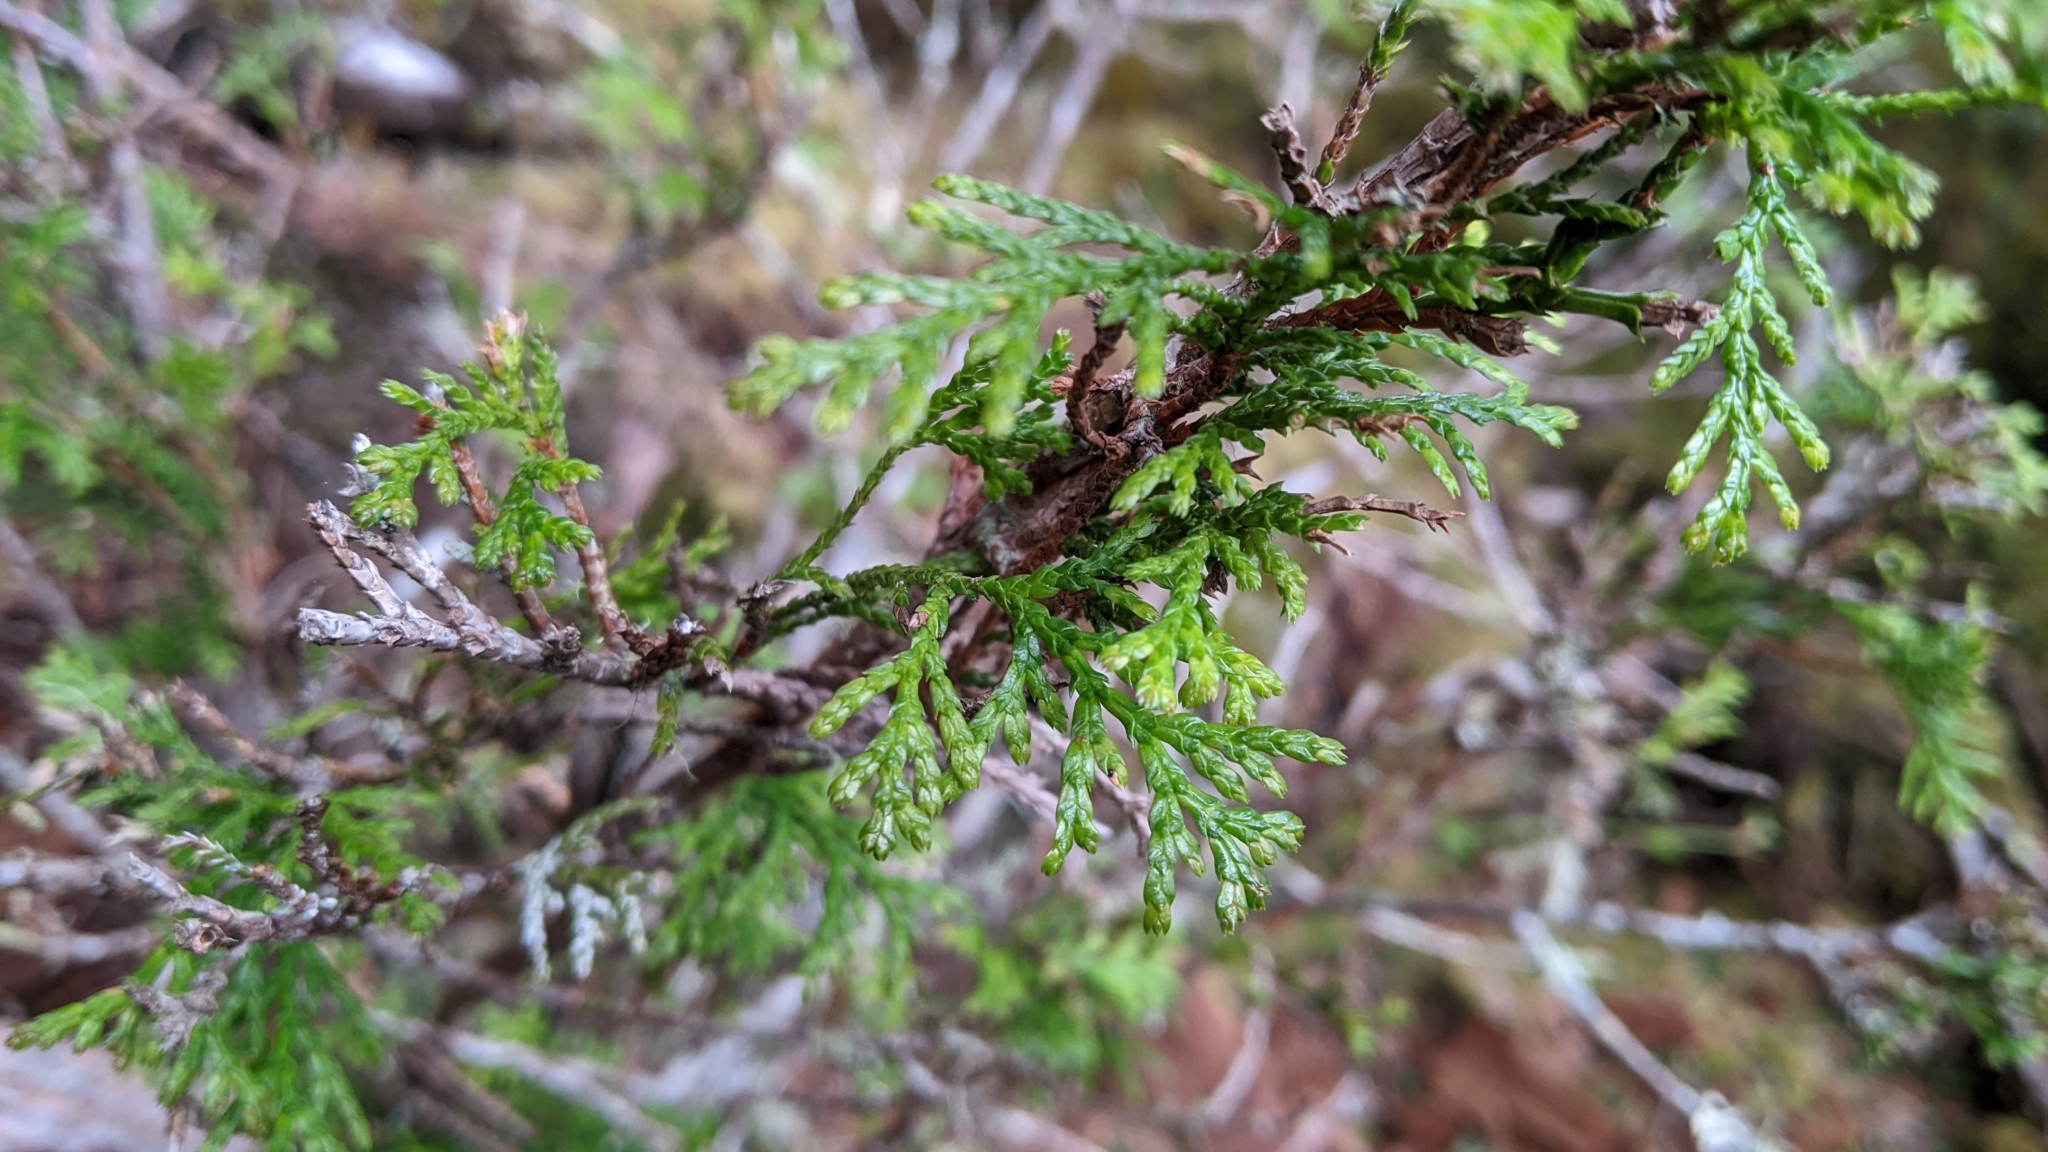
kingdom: Plantae
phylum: Tracheophyta
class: Pinopsida
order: Pinales
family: Cupressaceae
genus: Chamaecyparis
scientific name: Chamaecyparis obtusa
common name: Hinoki false cypress
